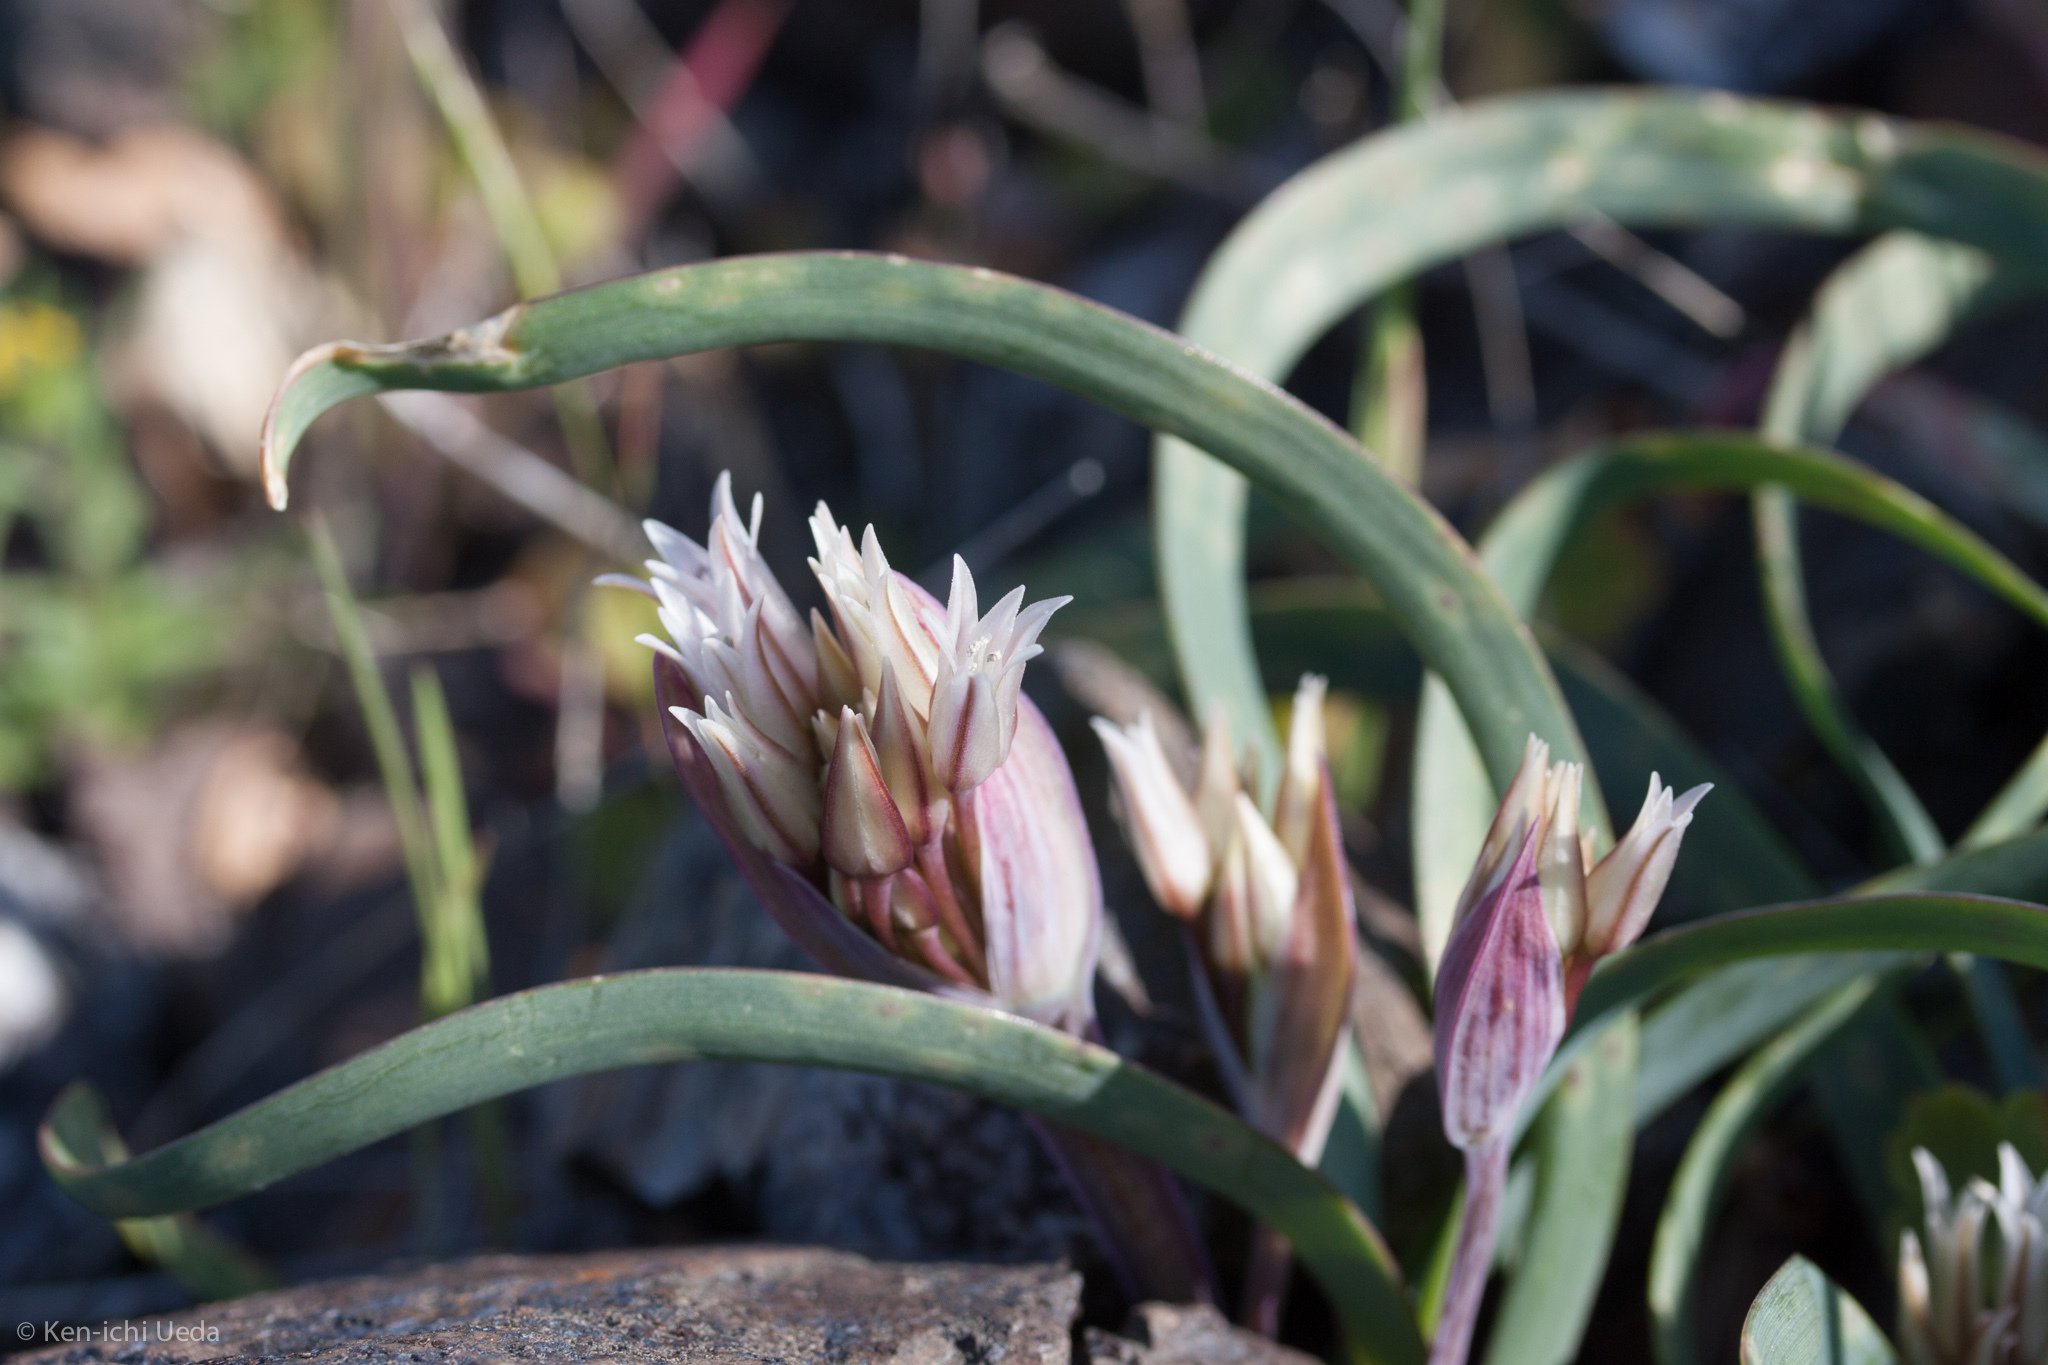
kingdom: Plantae
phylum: Tracheophyta
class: Liliopsida
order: Asparagales
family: Amaryllidaceae
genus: Allium
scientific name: Allium falcifolium
